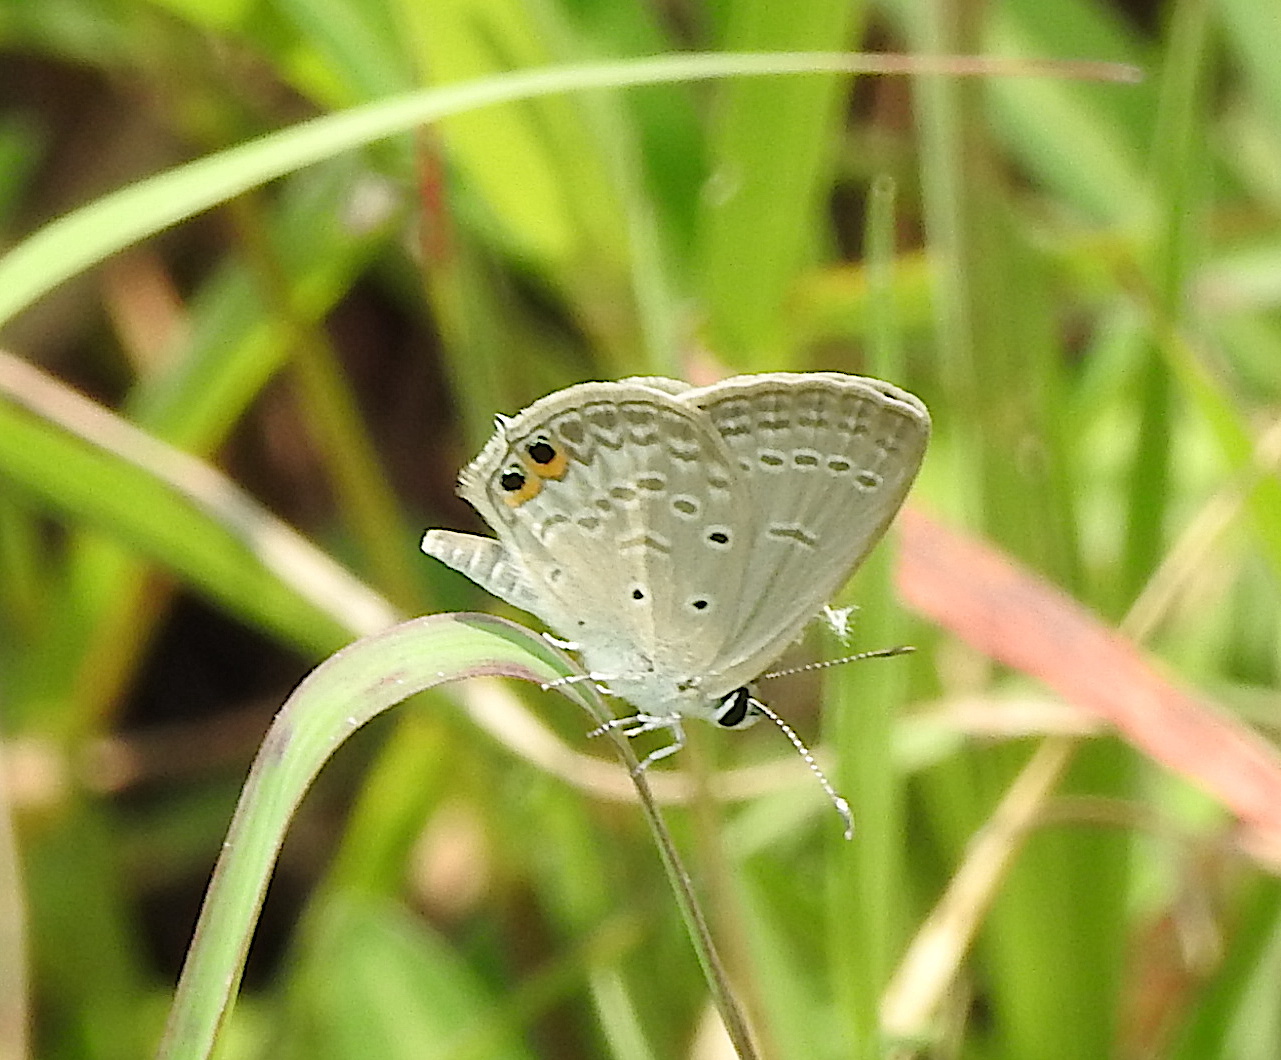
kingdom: Animalia
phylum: Arthropoda
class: Insecta
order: Lepidoptera
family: Lycaenidae
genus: Euchrysops
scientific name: Euchrysops cnejus
